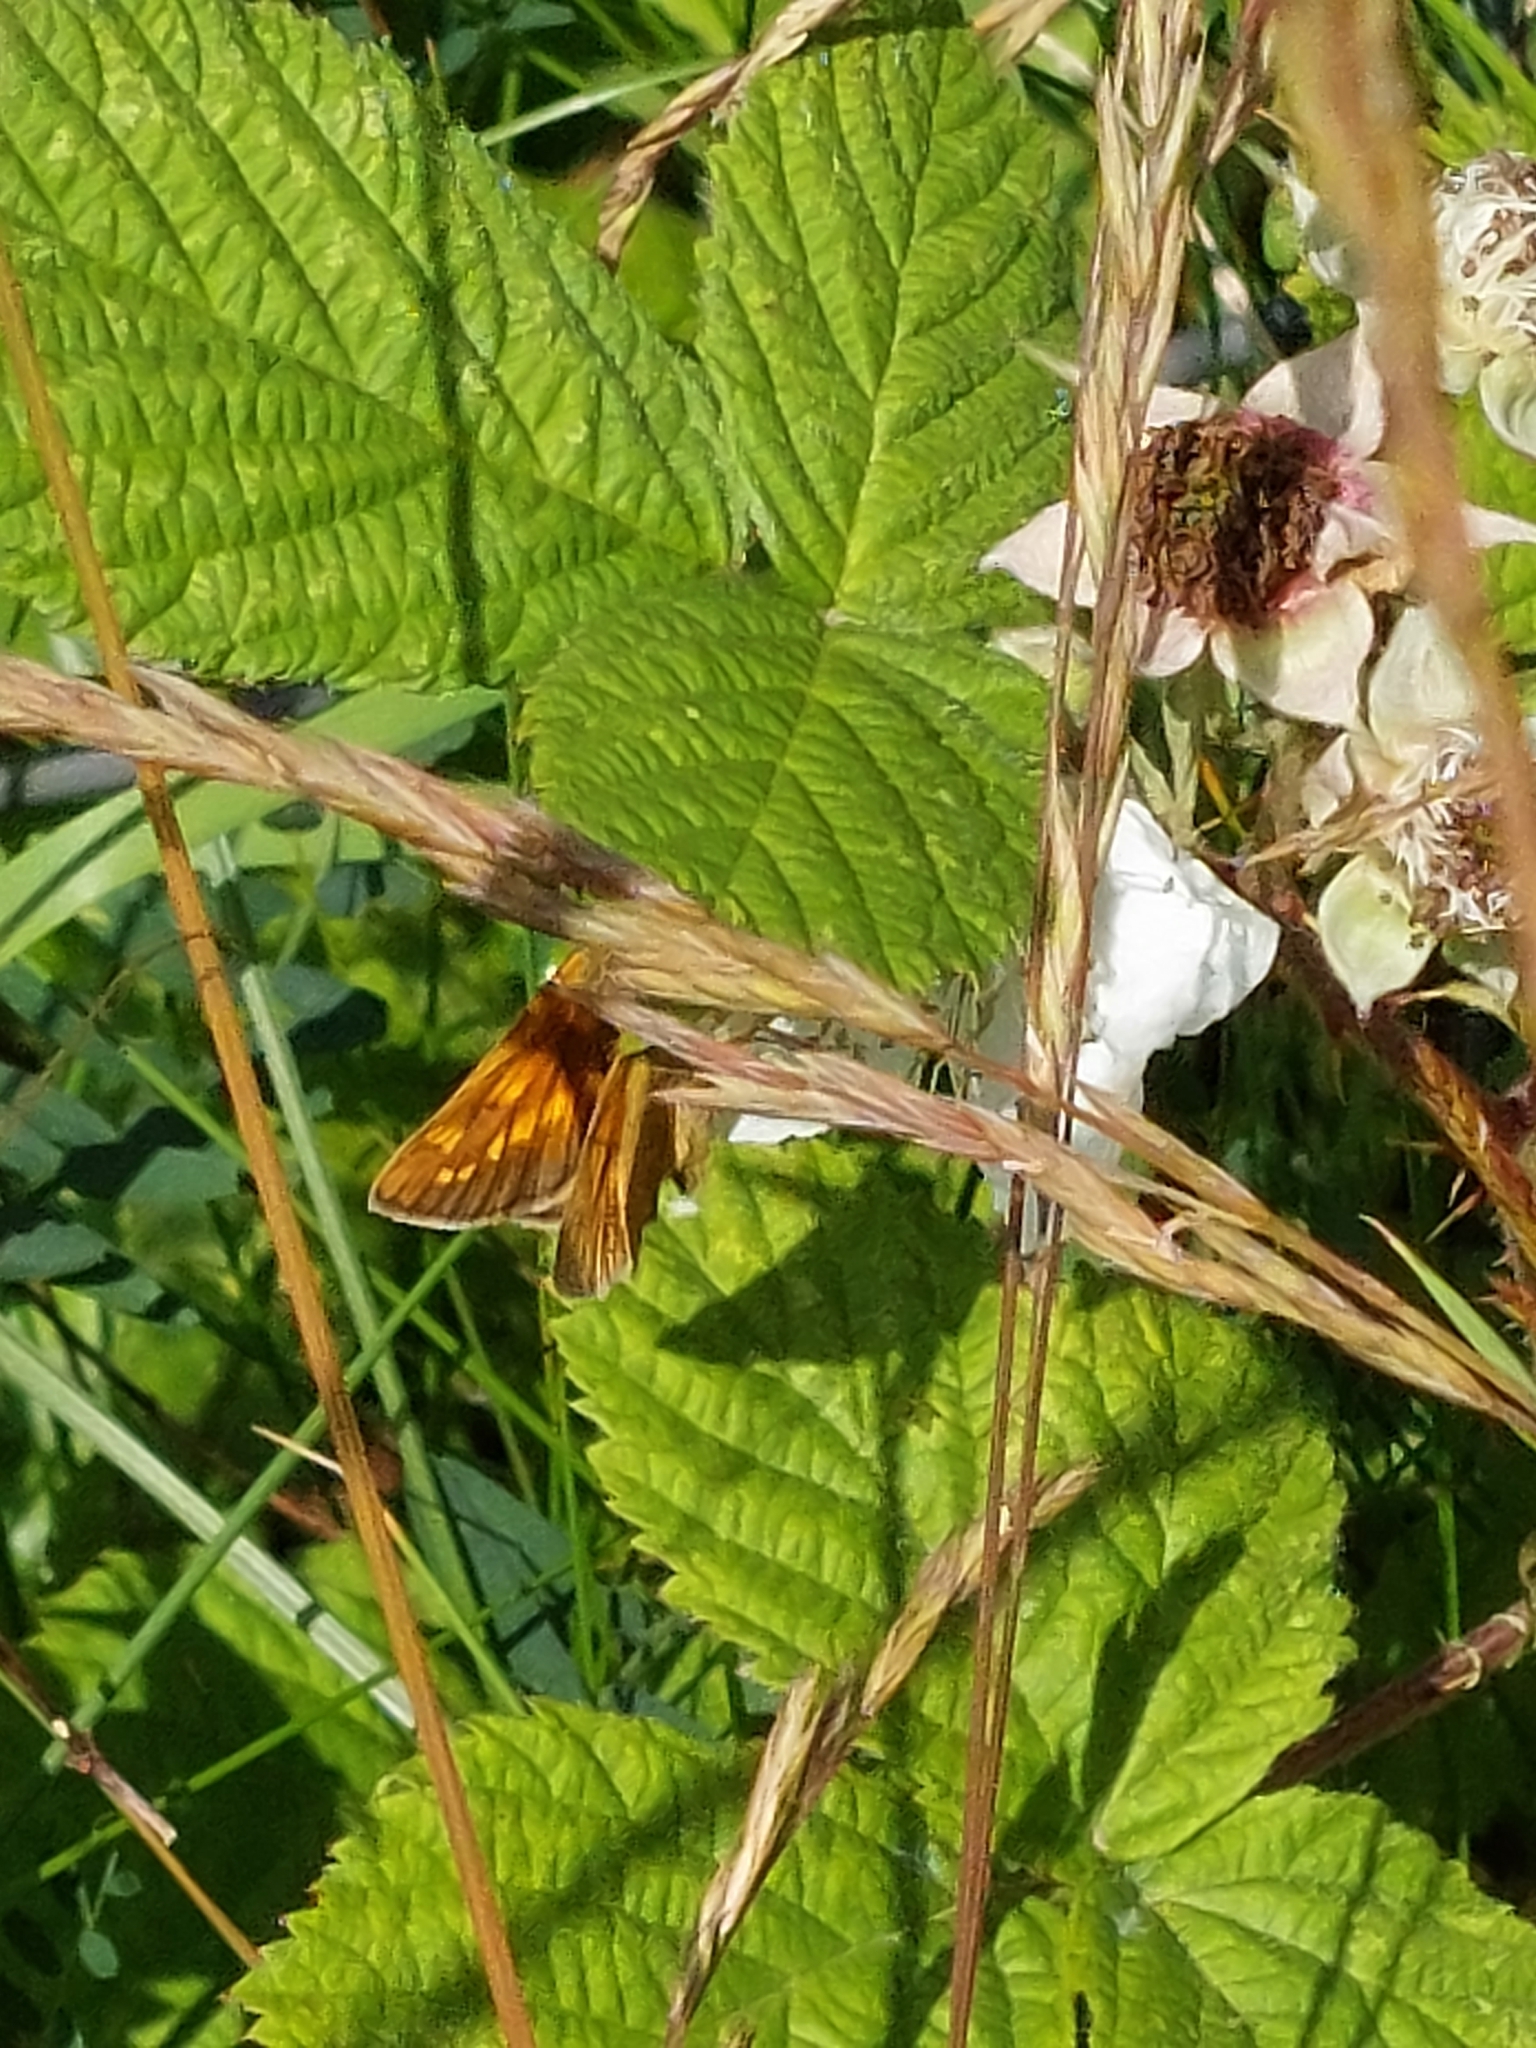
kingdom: Animalia
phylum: Arthropoda
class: Insecta
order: Lepidoptera
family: Hesperiidae
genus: Ochlodes
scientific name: Ochlodes venata
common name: Large skipper
